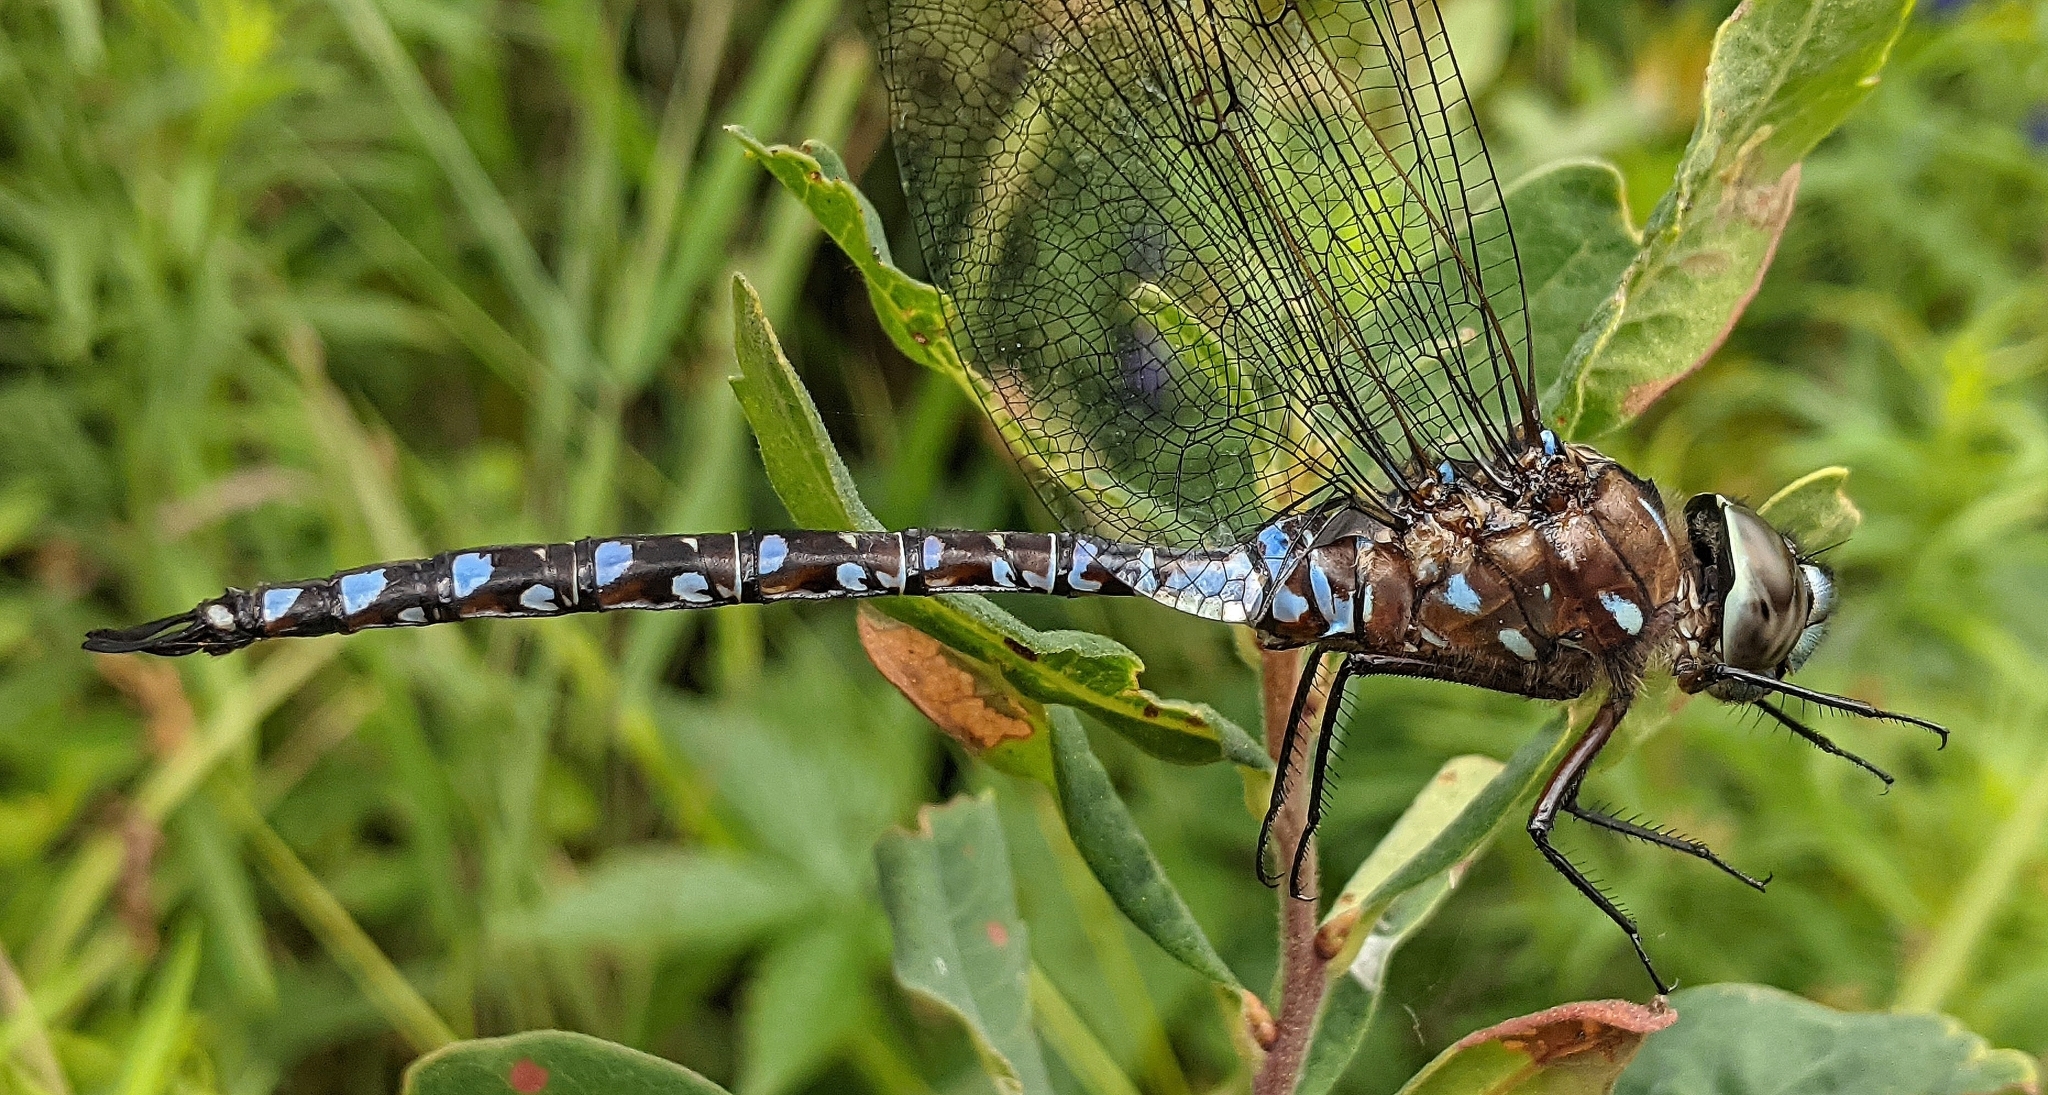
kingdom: Animalia
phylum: Arthropoda
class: Insecta
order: Odonata
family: Aeshnidae
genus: Aeshna
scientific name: Aeshna interrupta
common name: Variable darner
